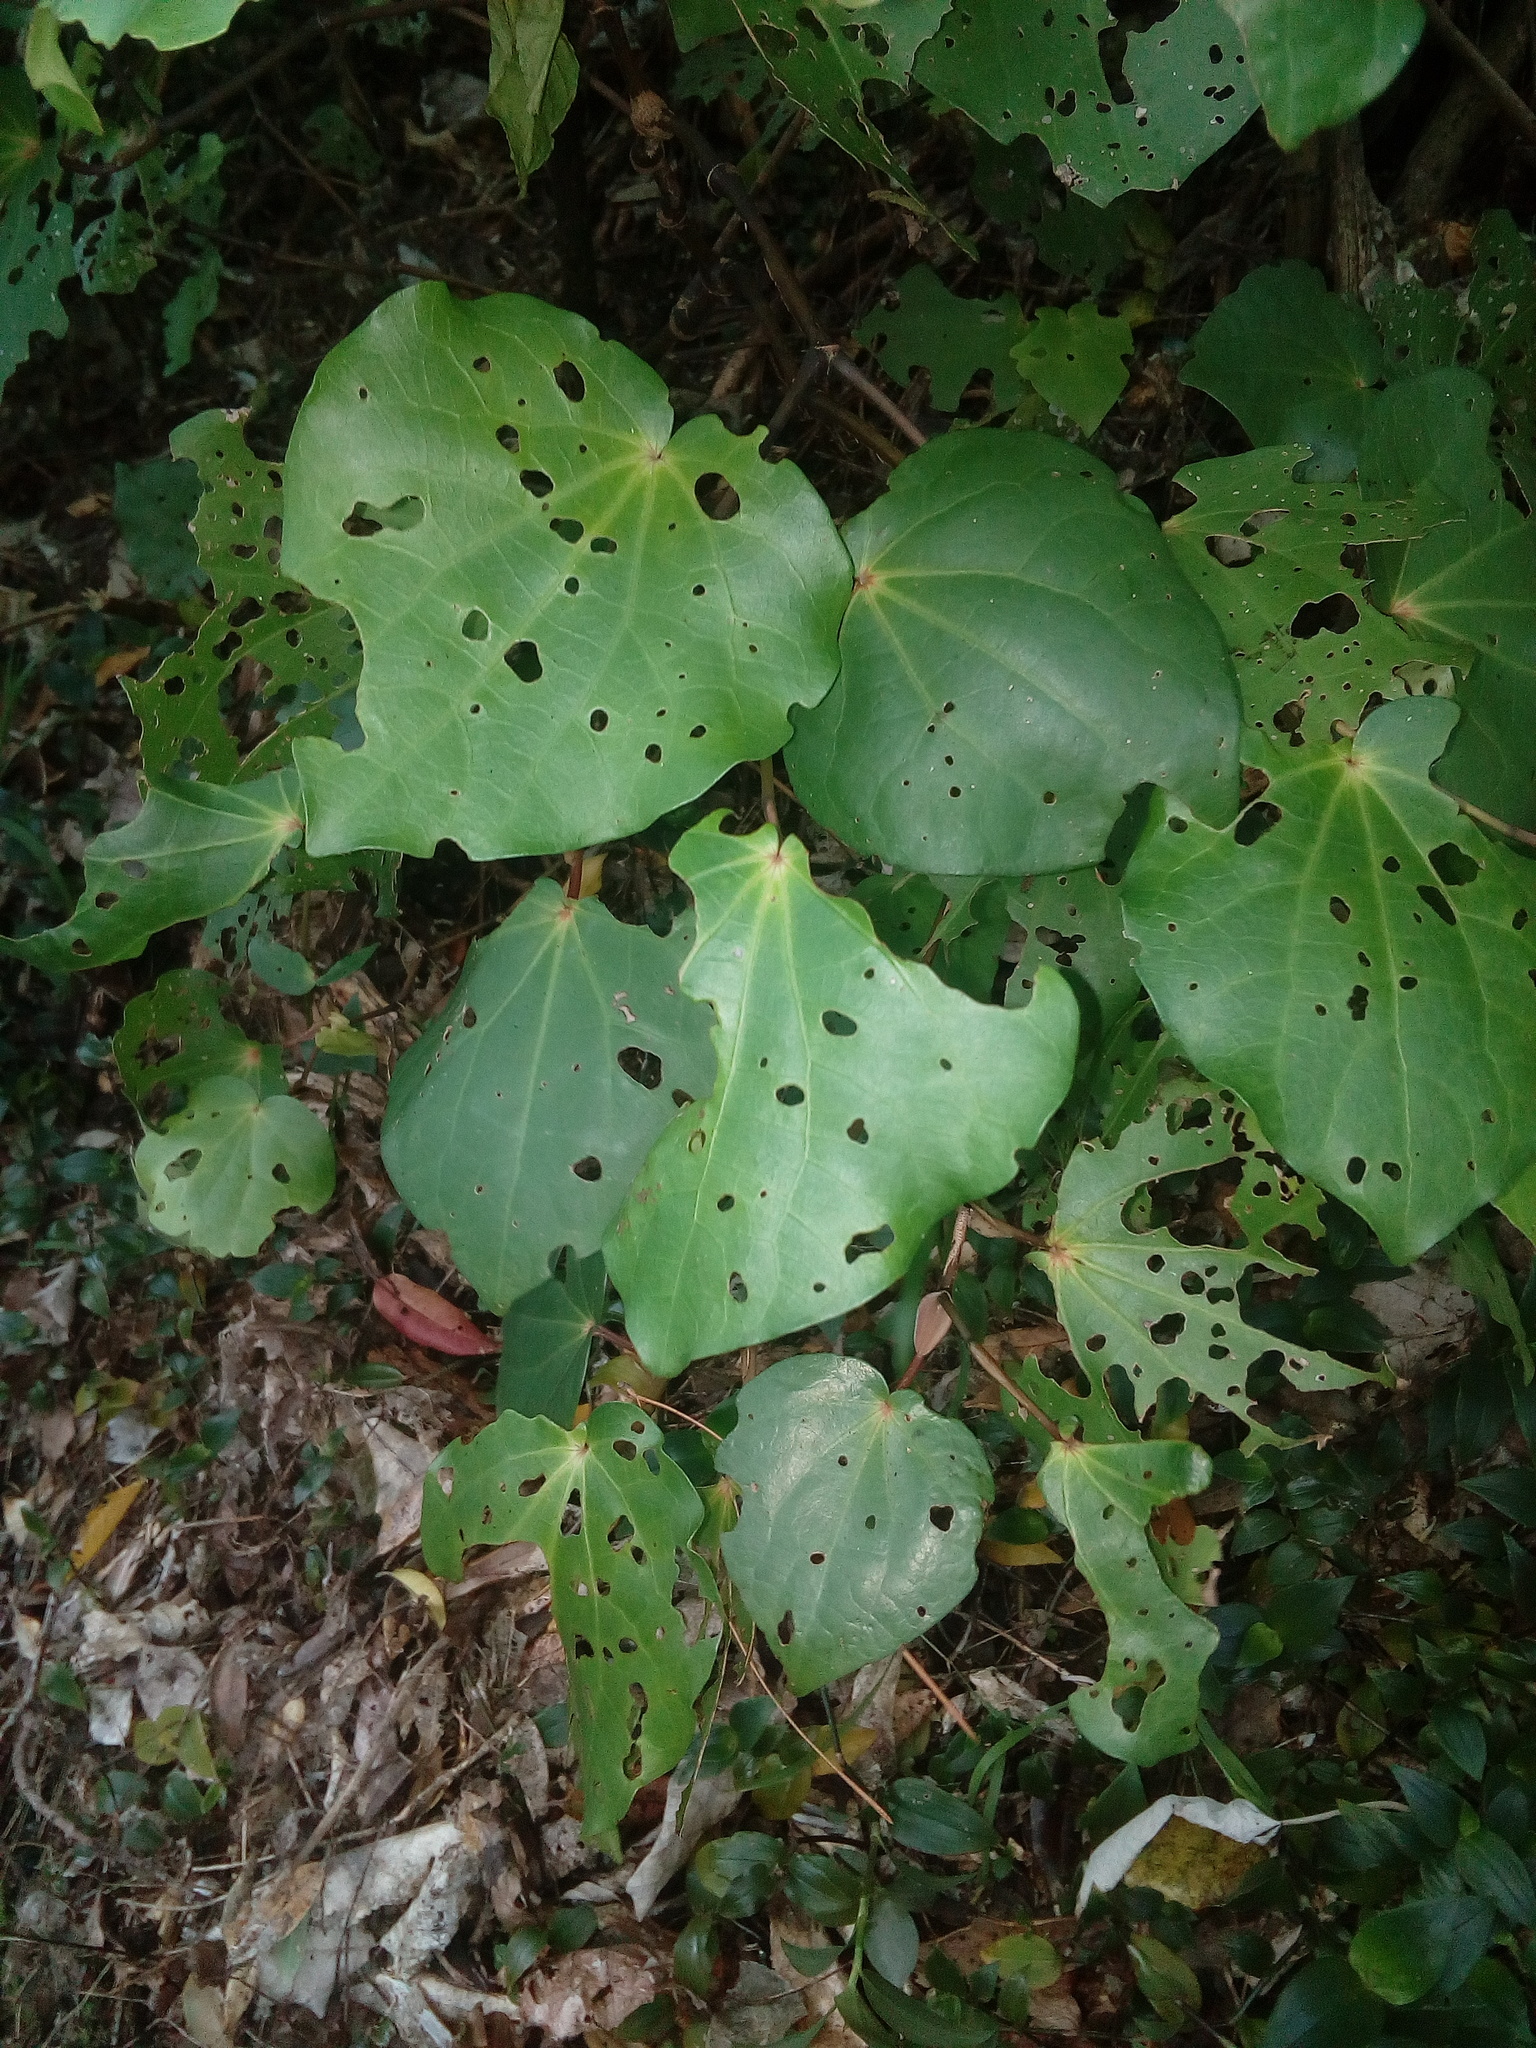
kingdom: Plantae
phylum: Tracheophyta
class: Magnoliopsida
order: Piperales
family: Piperaceae
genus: Macropiper
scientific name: Macropiper excelsum
